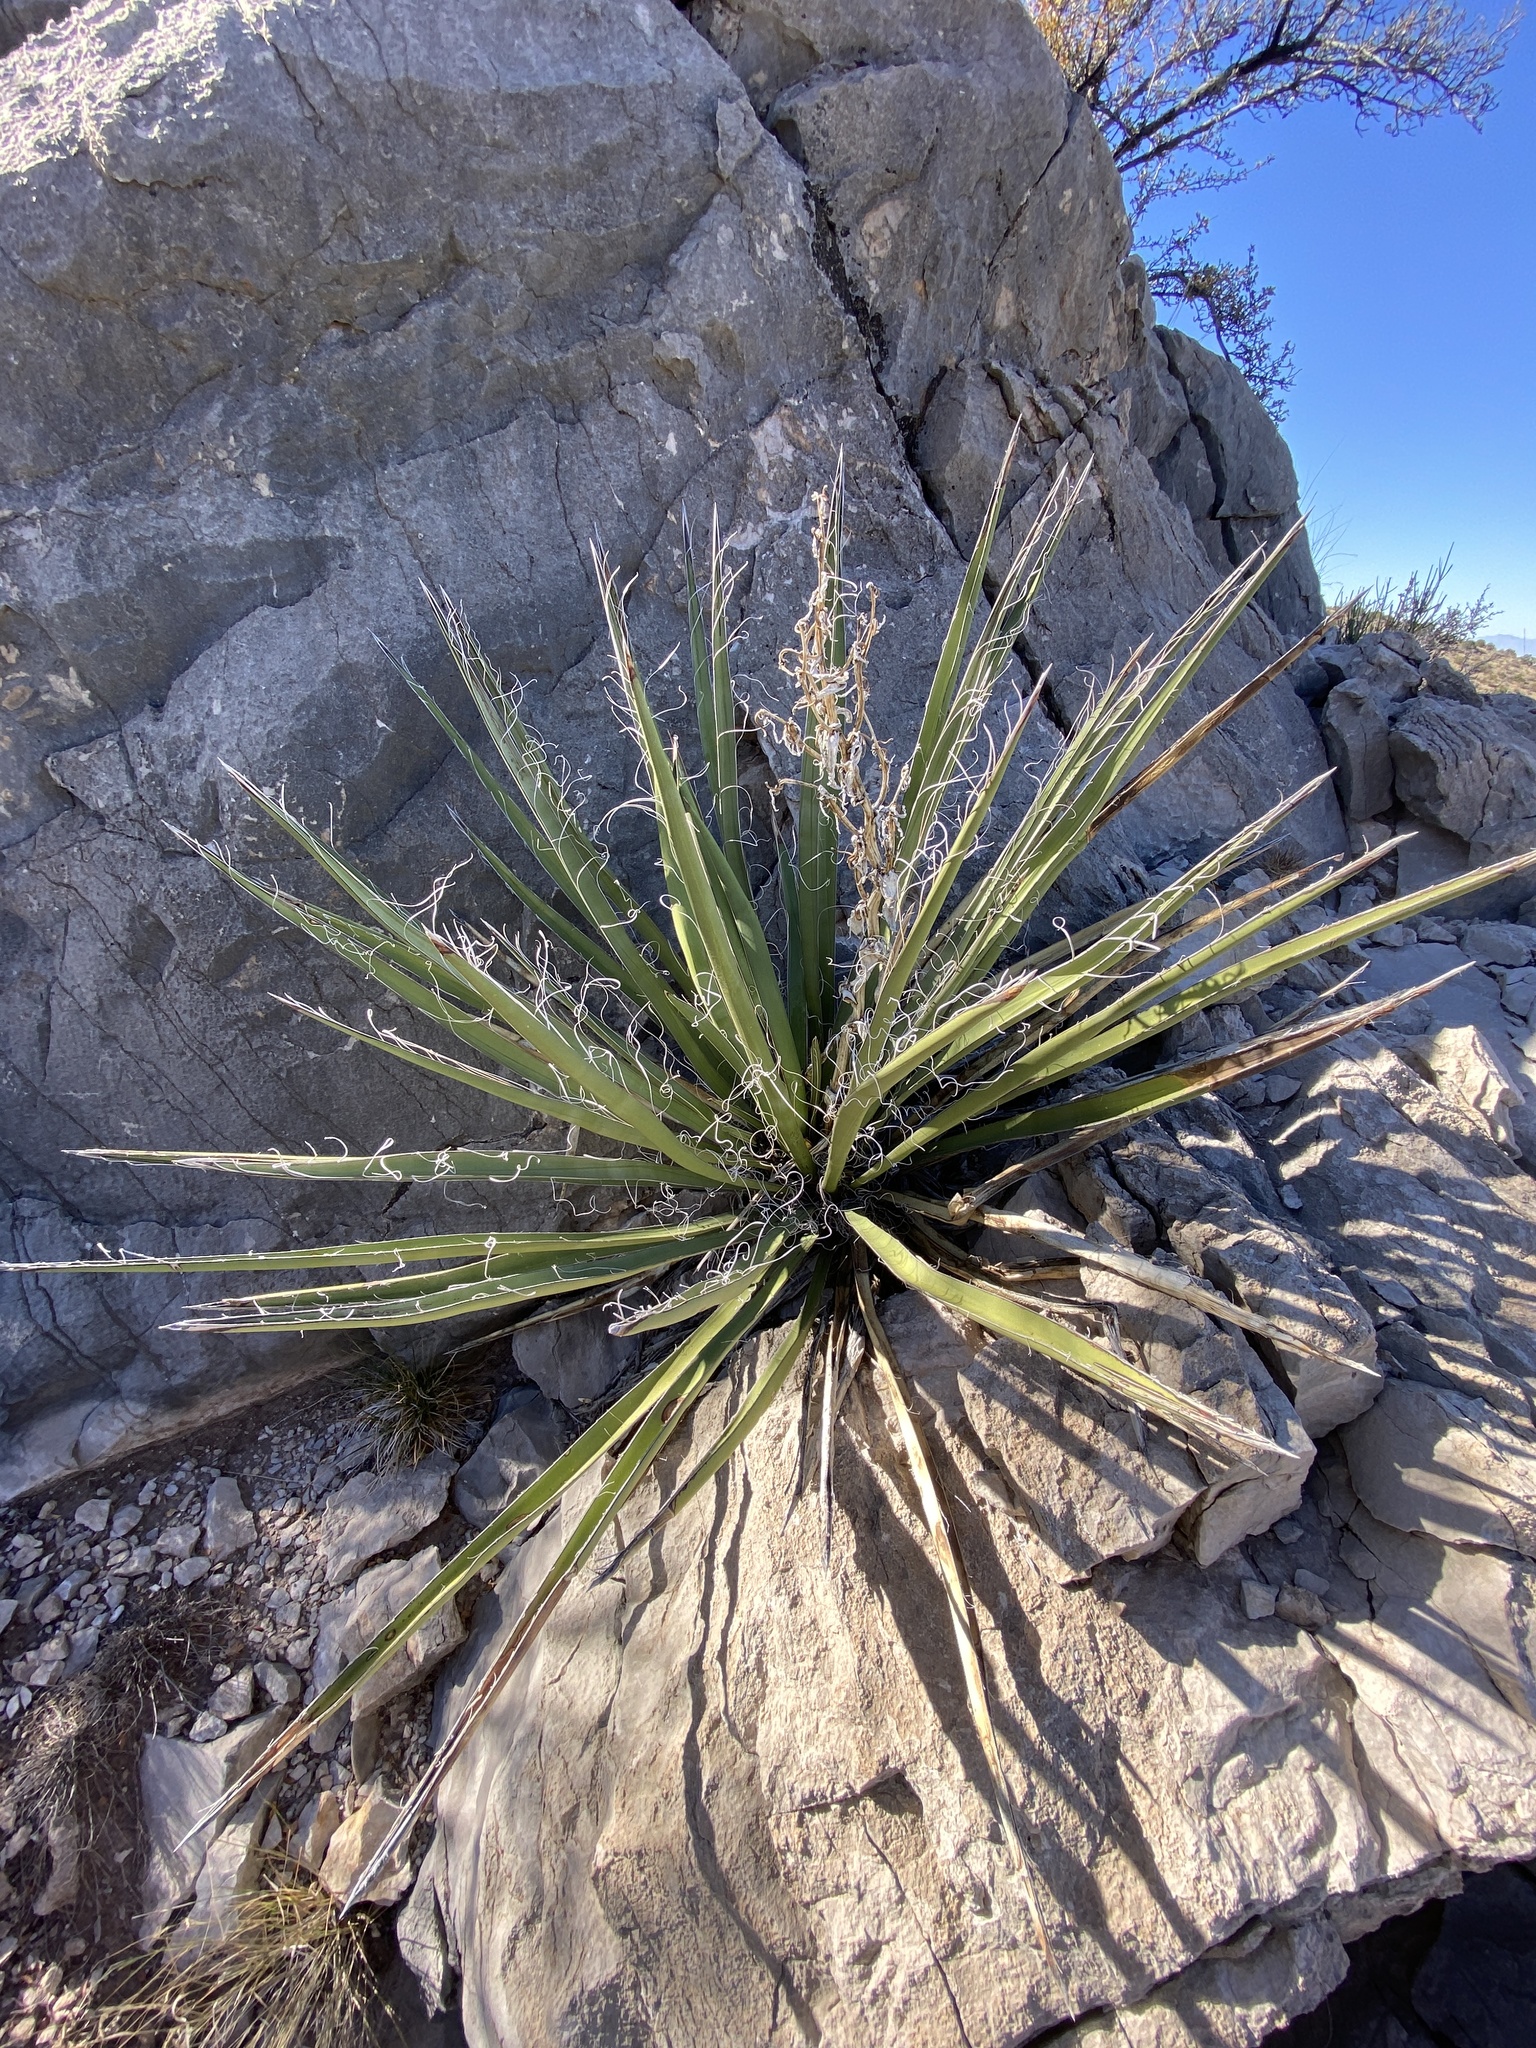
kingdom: Plantae
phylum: Tracheophyta
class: Liliopsida
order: Asparagales
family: Asparagaceae
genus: Yucca
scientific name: Yucca baccata
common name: Banana yucca
